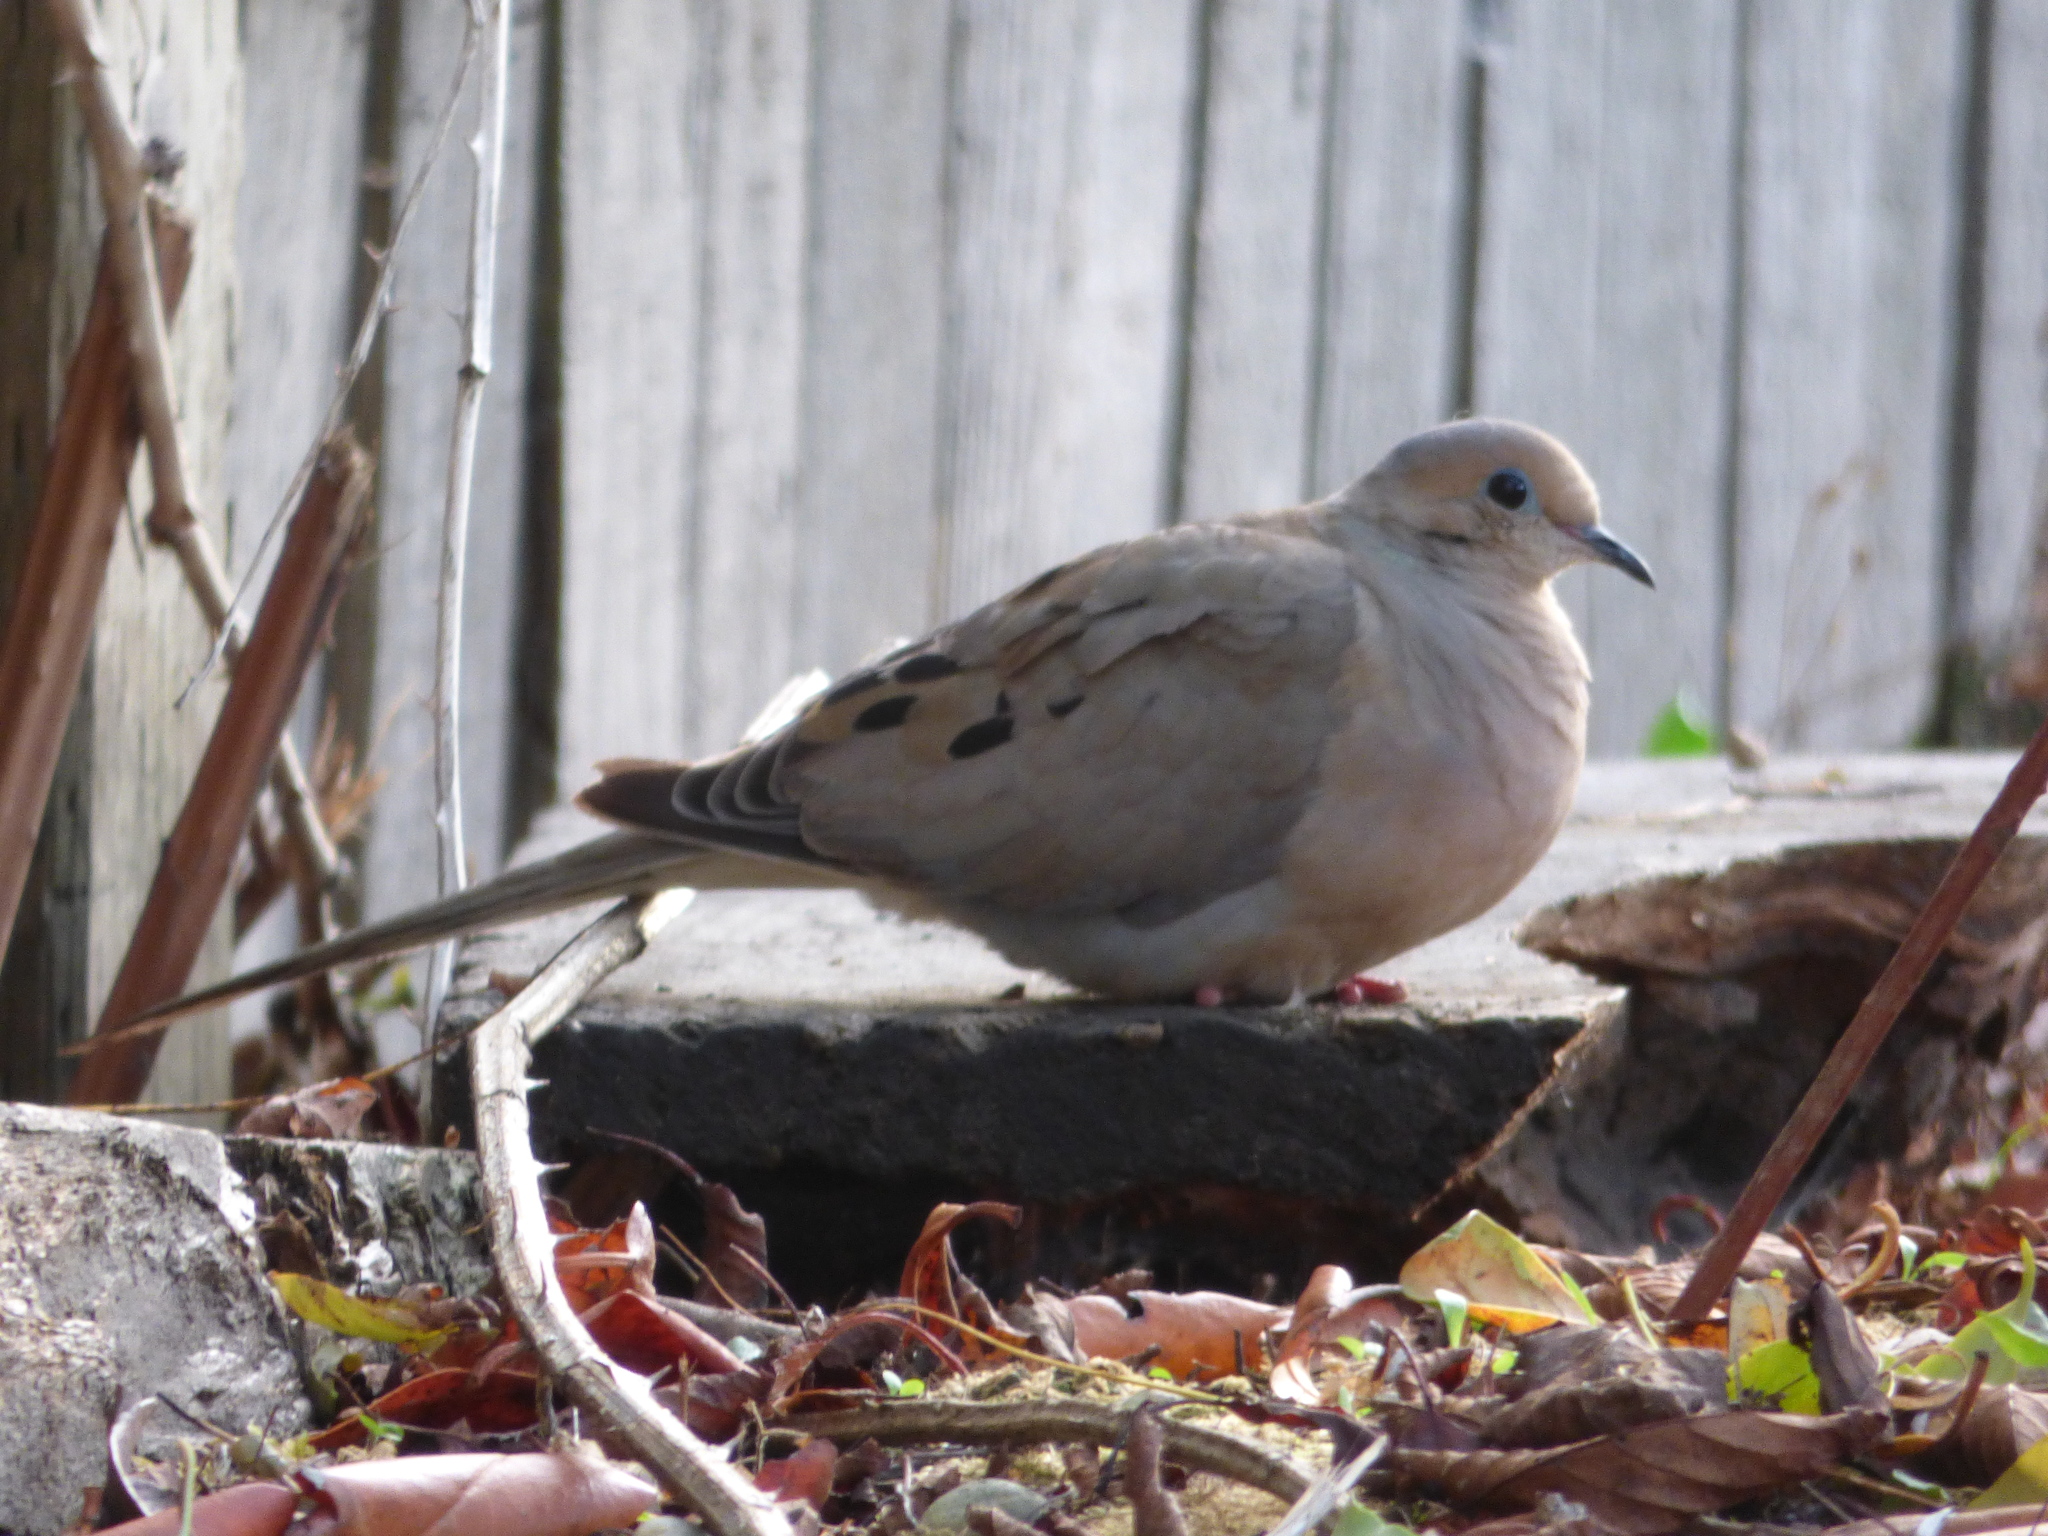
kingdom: Animalia
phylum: Chordata
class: Aves
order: Columbiformes
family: Columbidae
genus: Zenaida
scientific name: Zenaida macroura
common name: Mourning dove
